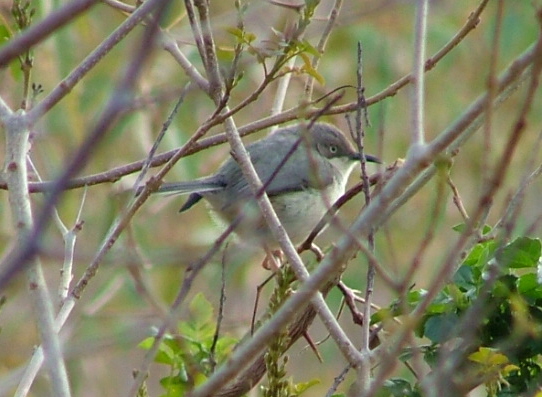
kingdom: Animalia
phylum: Chordata
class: Aves
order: Passeriformes
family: Cisticolidae
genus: Apalis
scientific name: Apalis thoracica
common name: Bar-throated apalis
